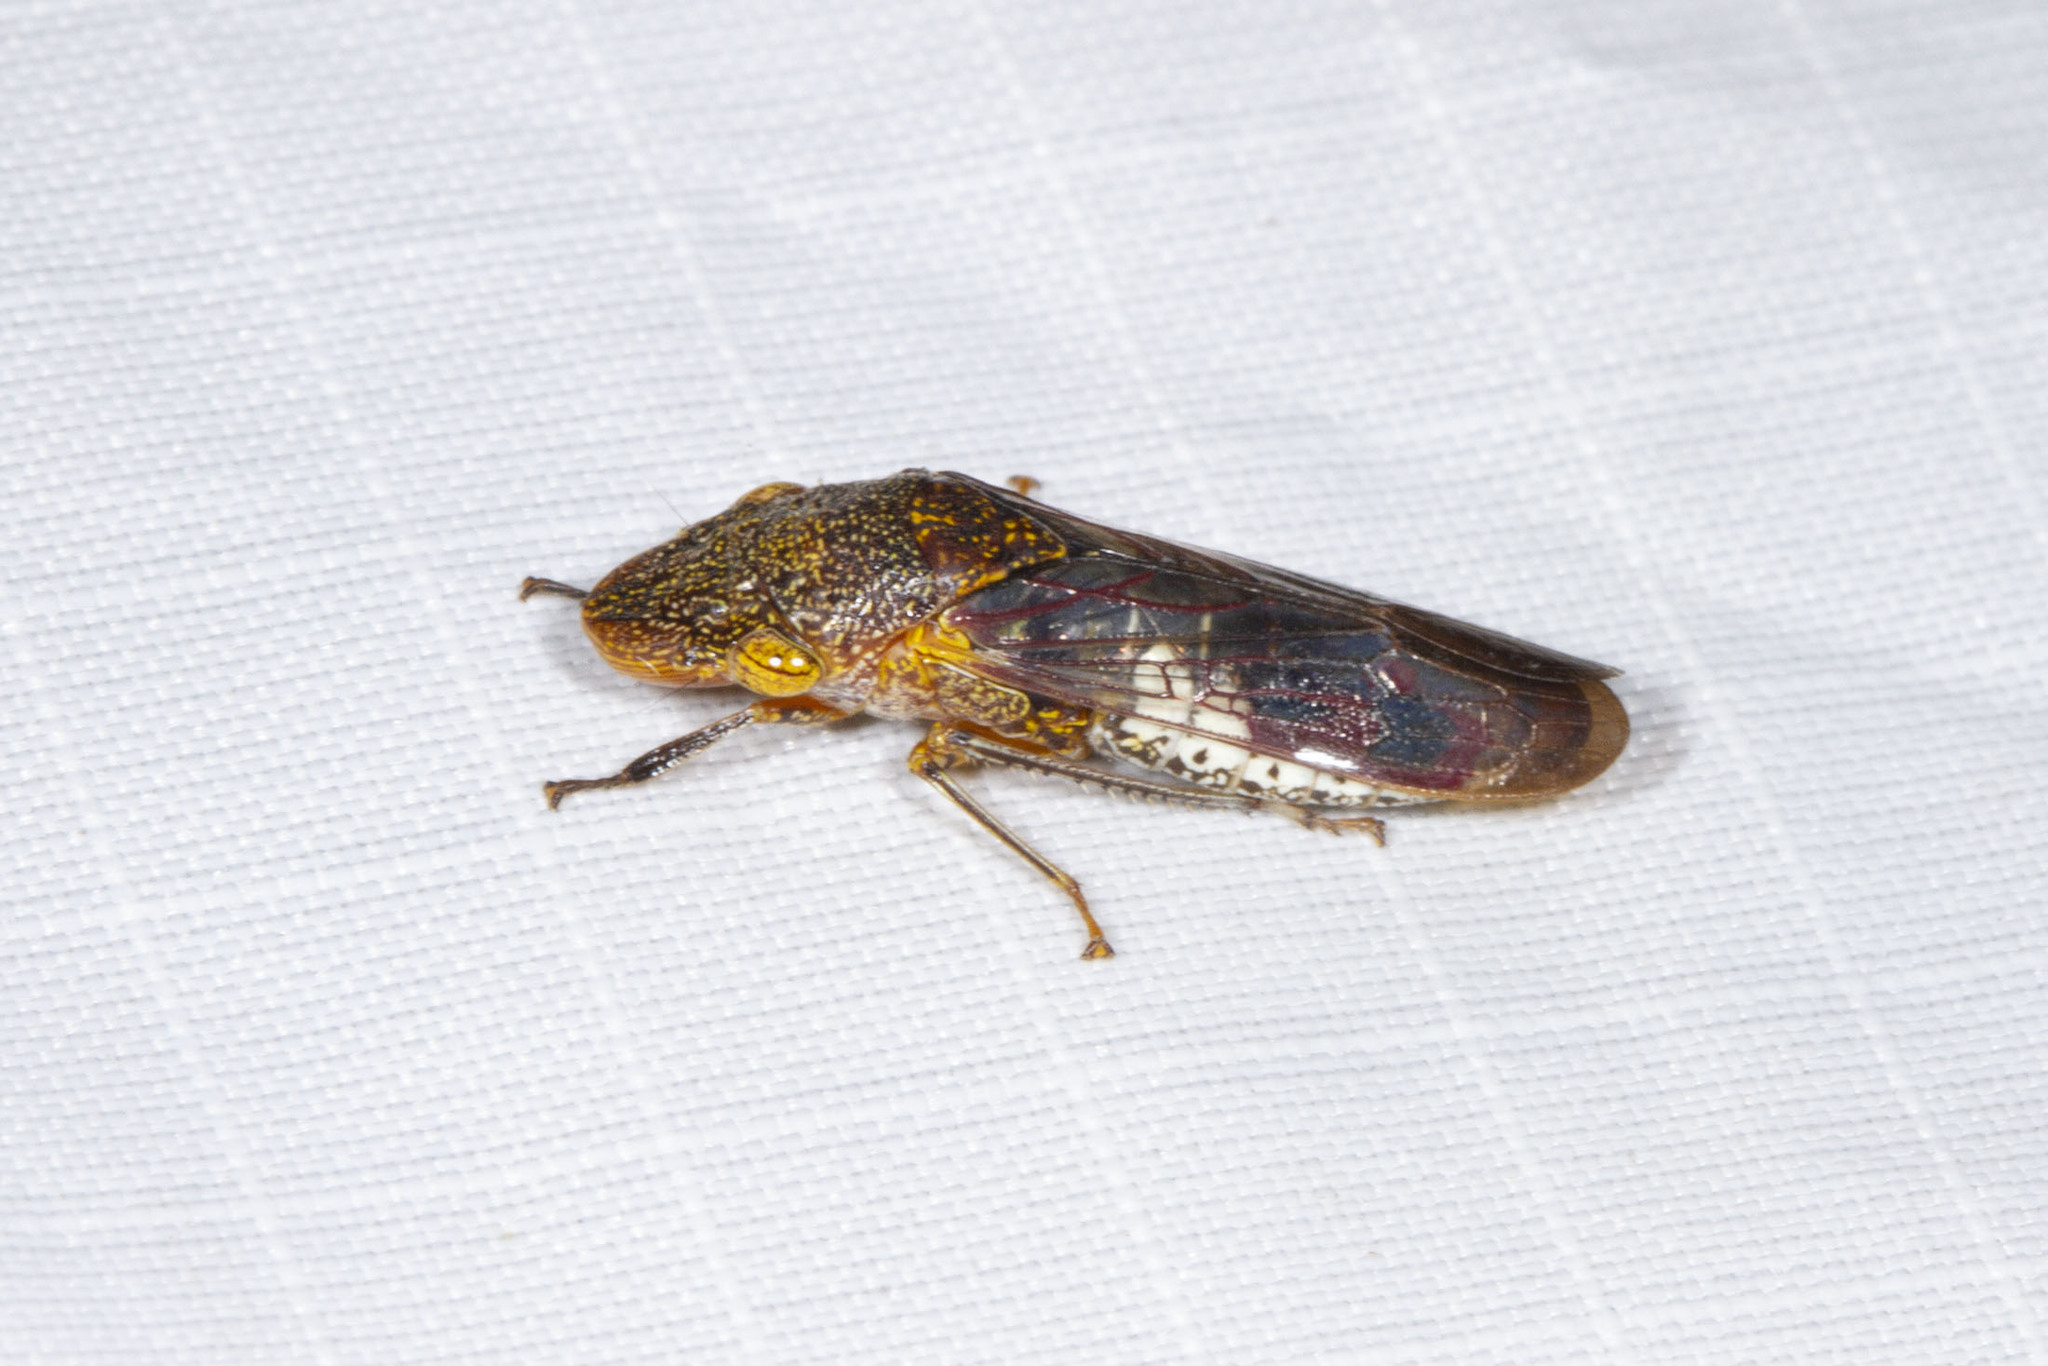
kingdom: Animalia
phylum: Arthropoda
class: Insecta
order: Hemiptera
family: Cicadellidae
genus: Homalodisca
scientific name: Homalodisca vitripennis
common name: Glassy-winged sharpshooter
